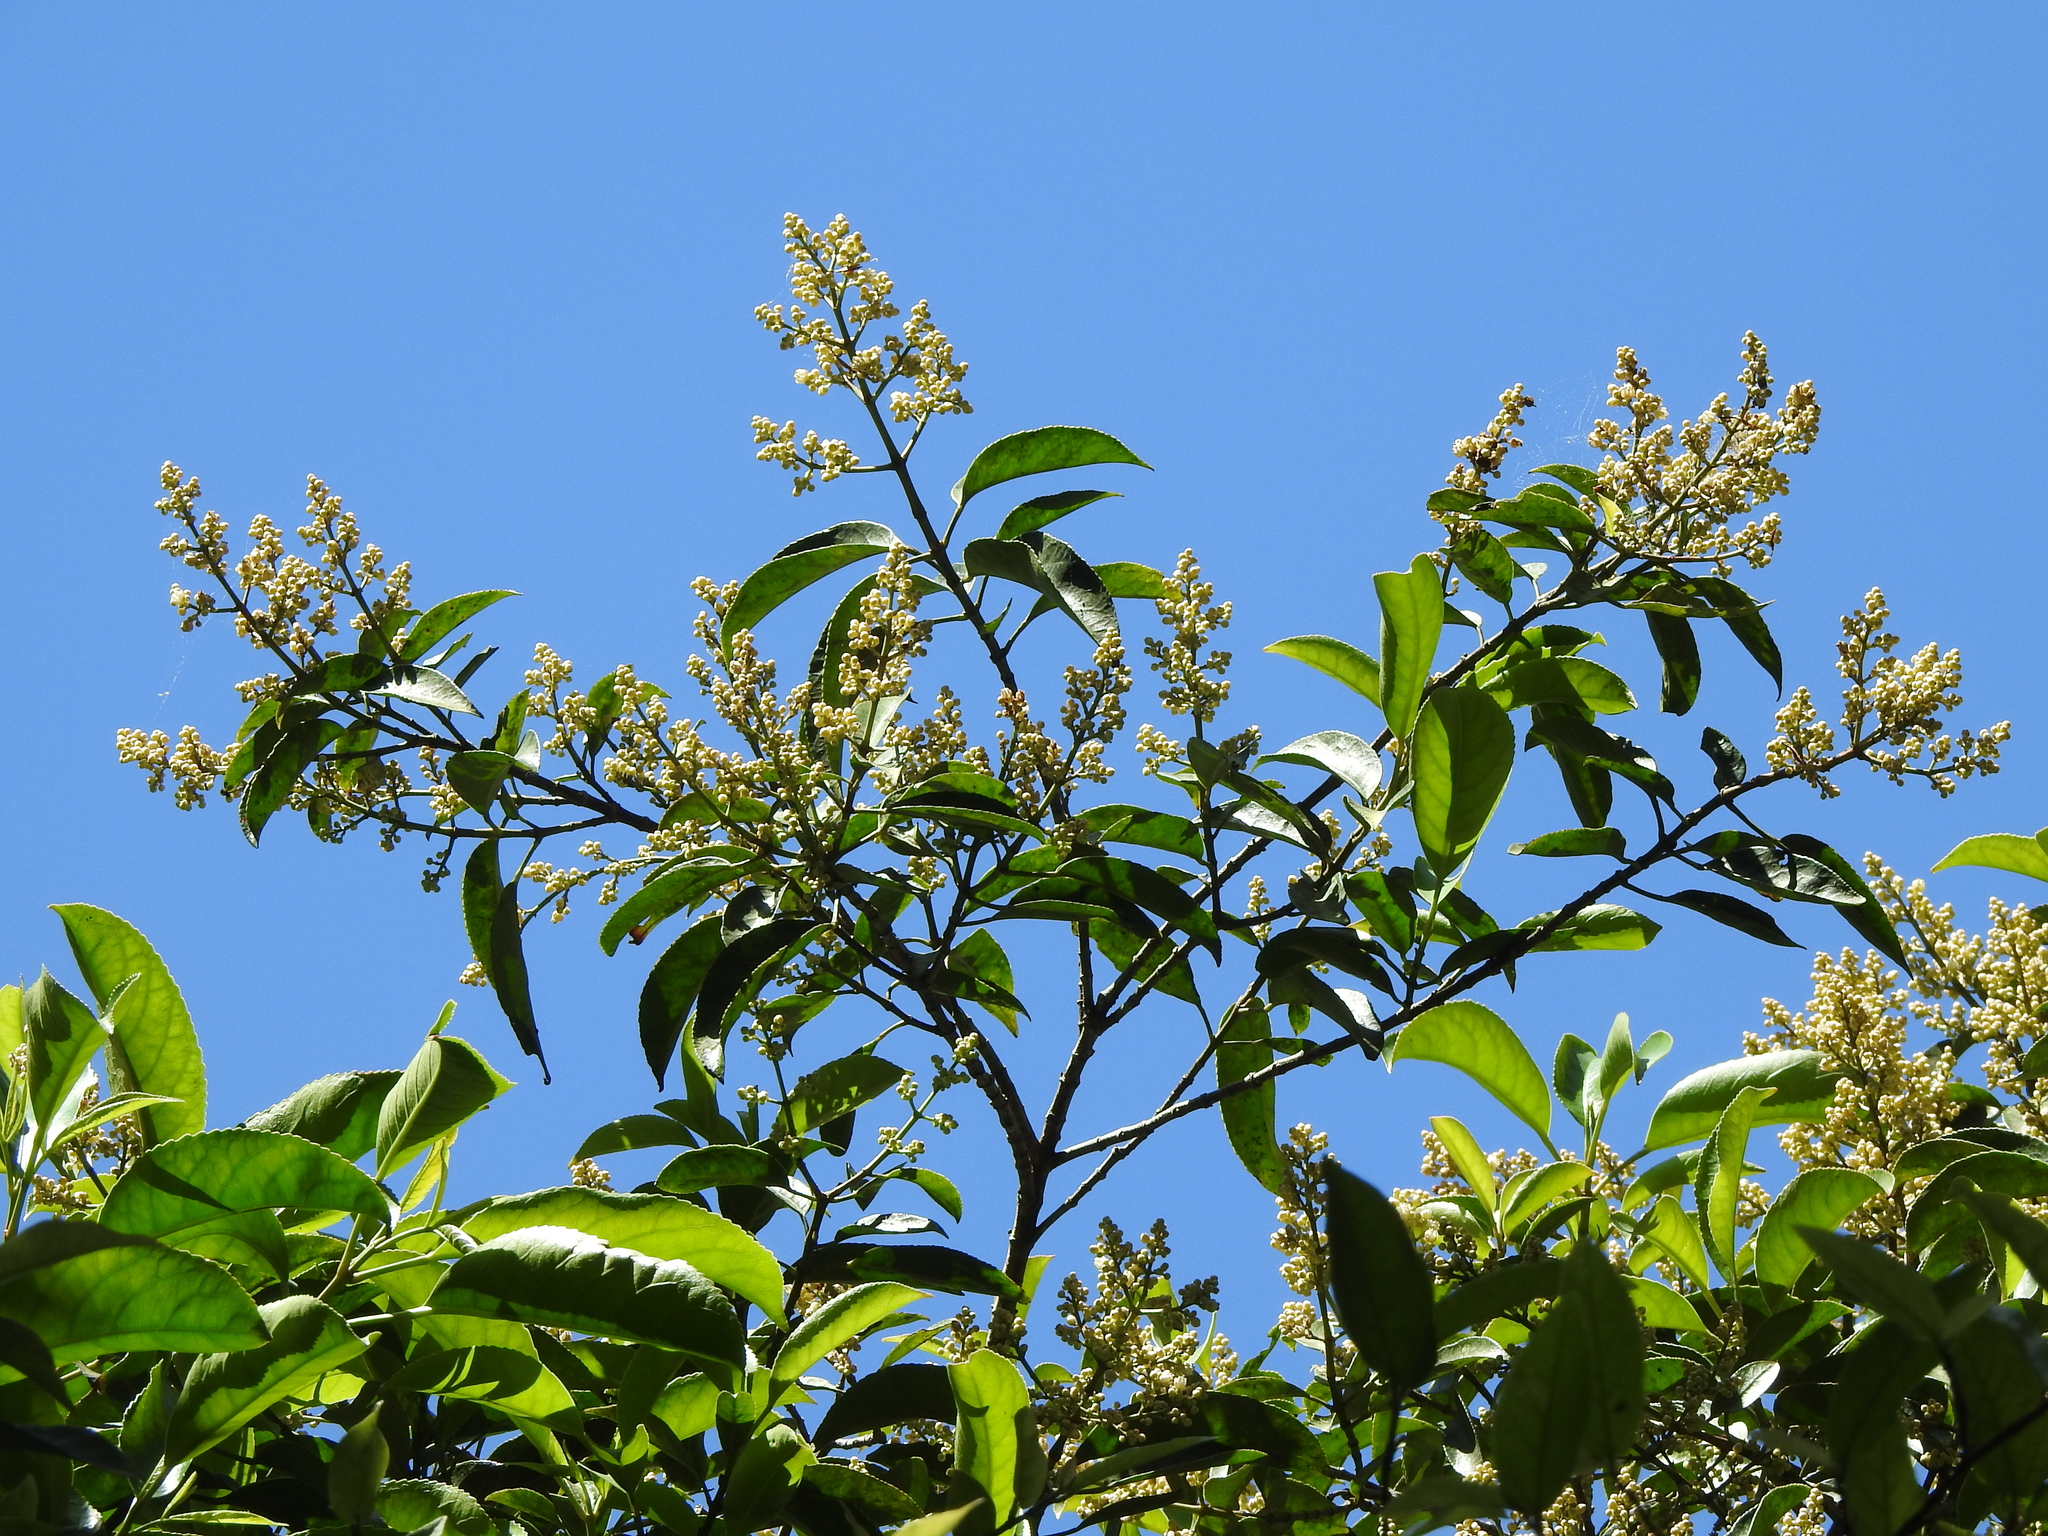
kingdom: Plantae
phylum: Tracheophyta
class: Magnoliopsida
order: Crossosomatales
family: Staphyleaceae
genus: Turpinia
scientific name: Turpinia formosana
